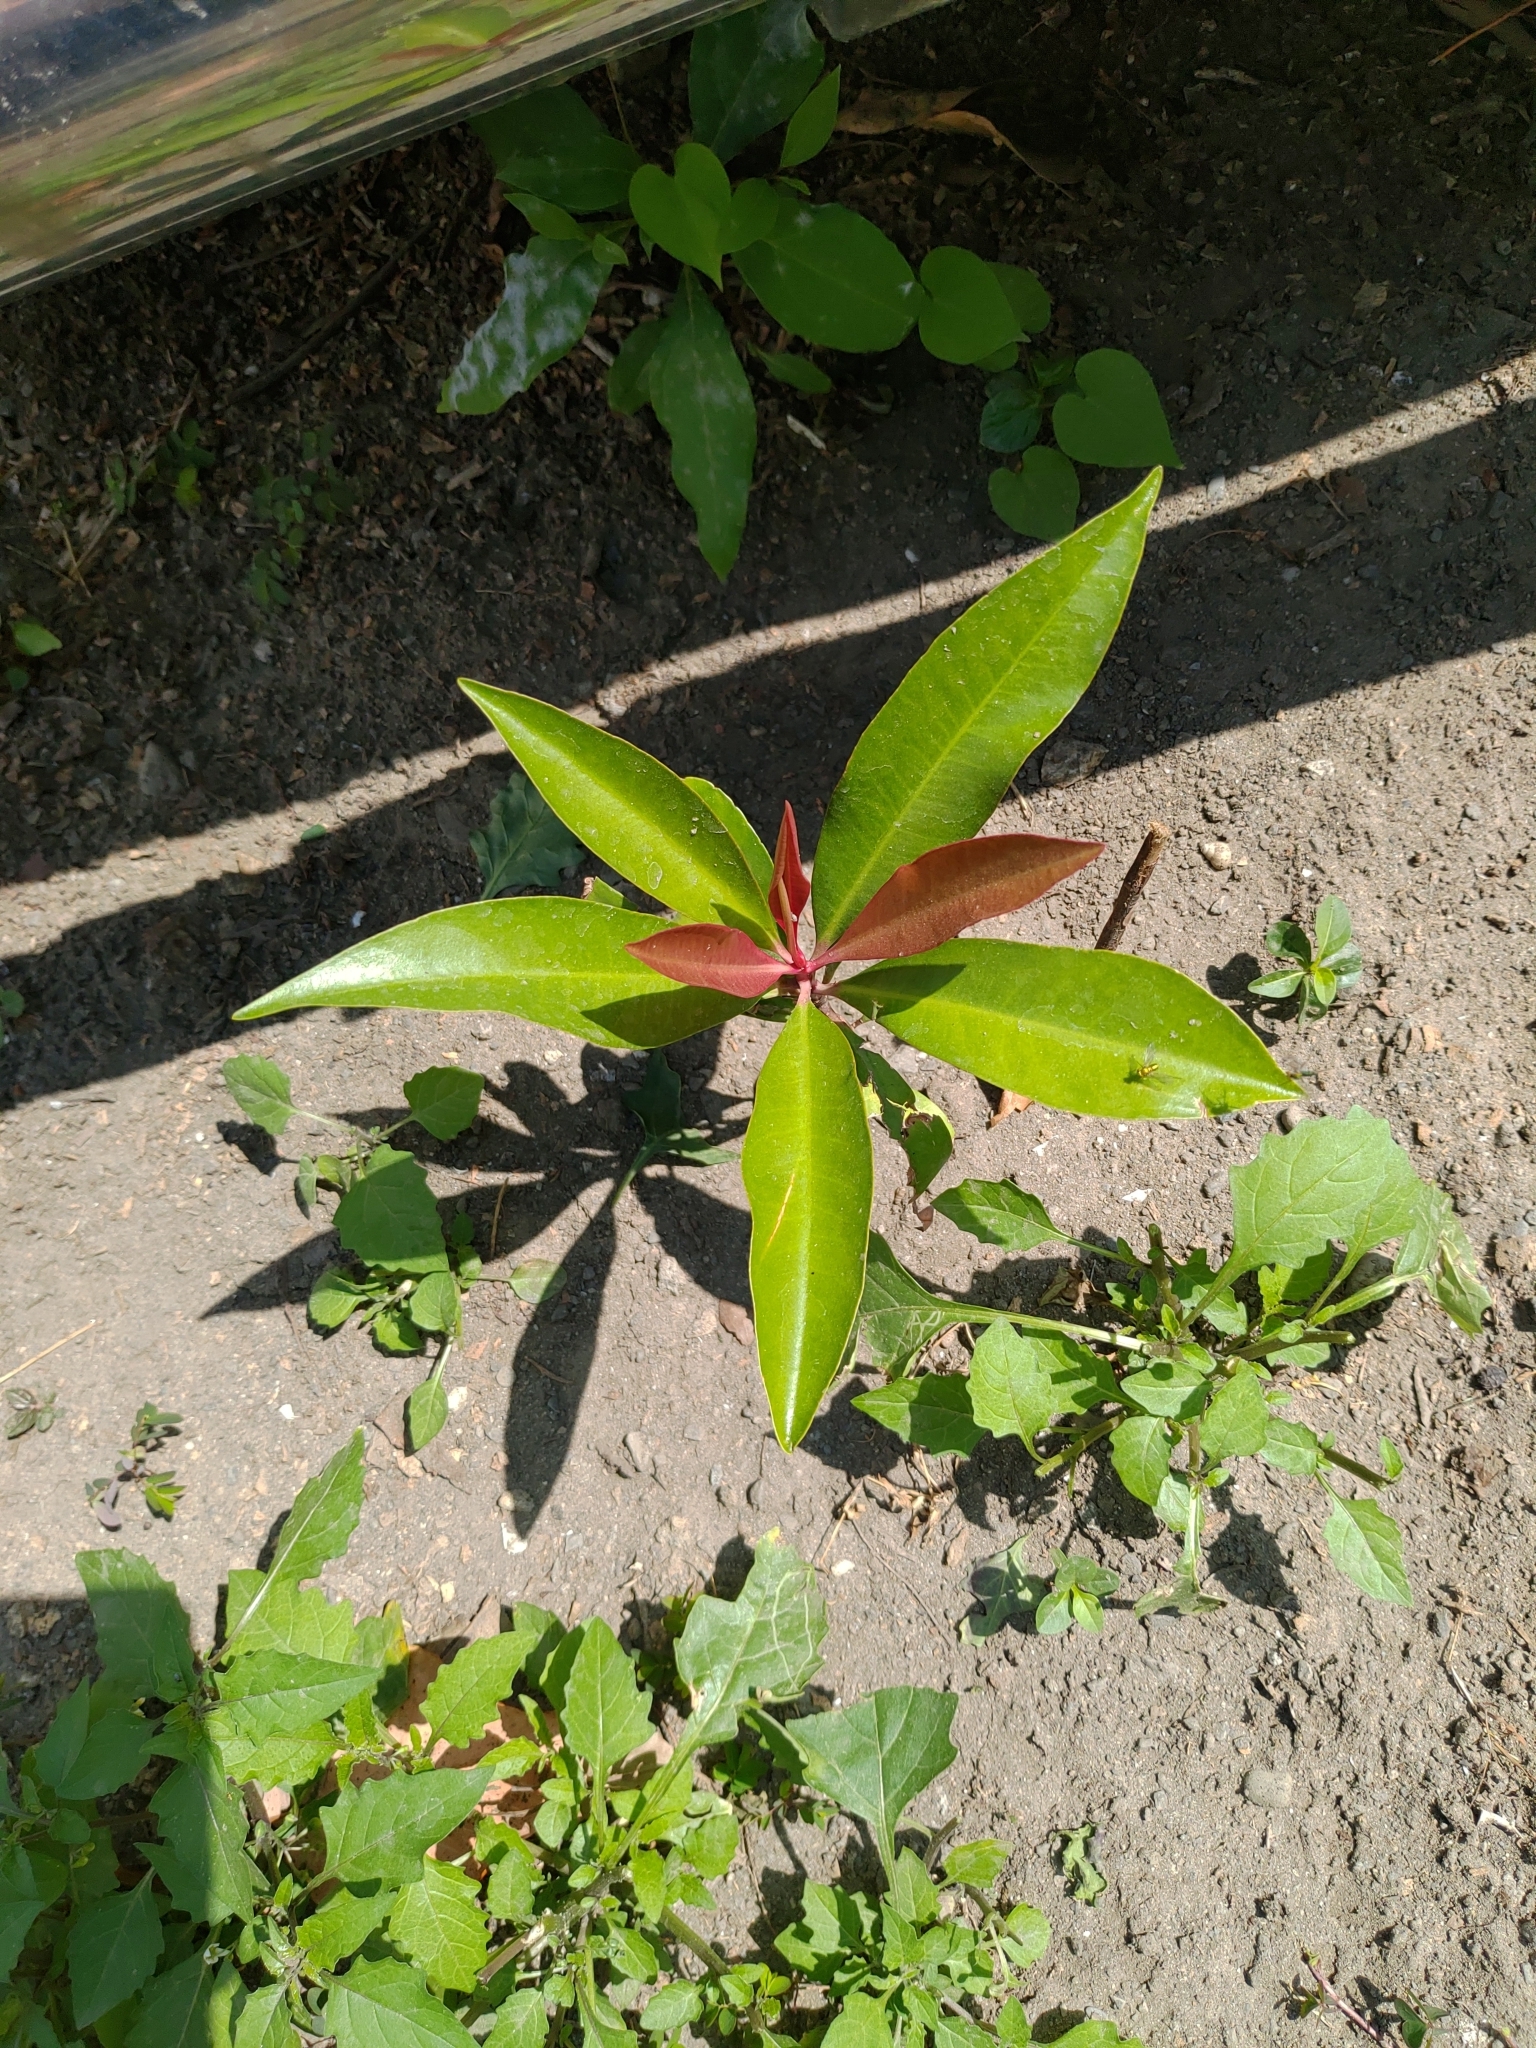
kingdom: Plantae
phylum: Tracheophyta
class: Magnoliopsida
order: Ericales
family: Primulaceae
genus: Ardisia
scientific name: Ardisia sieboldii
